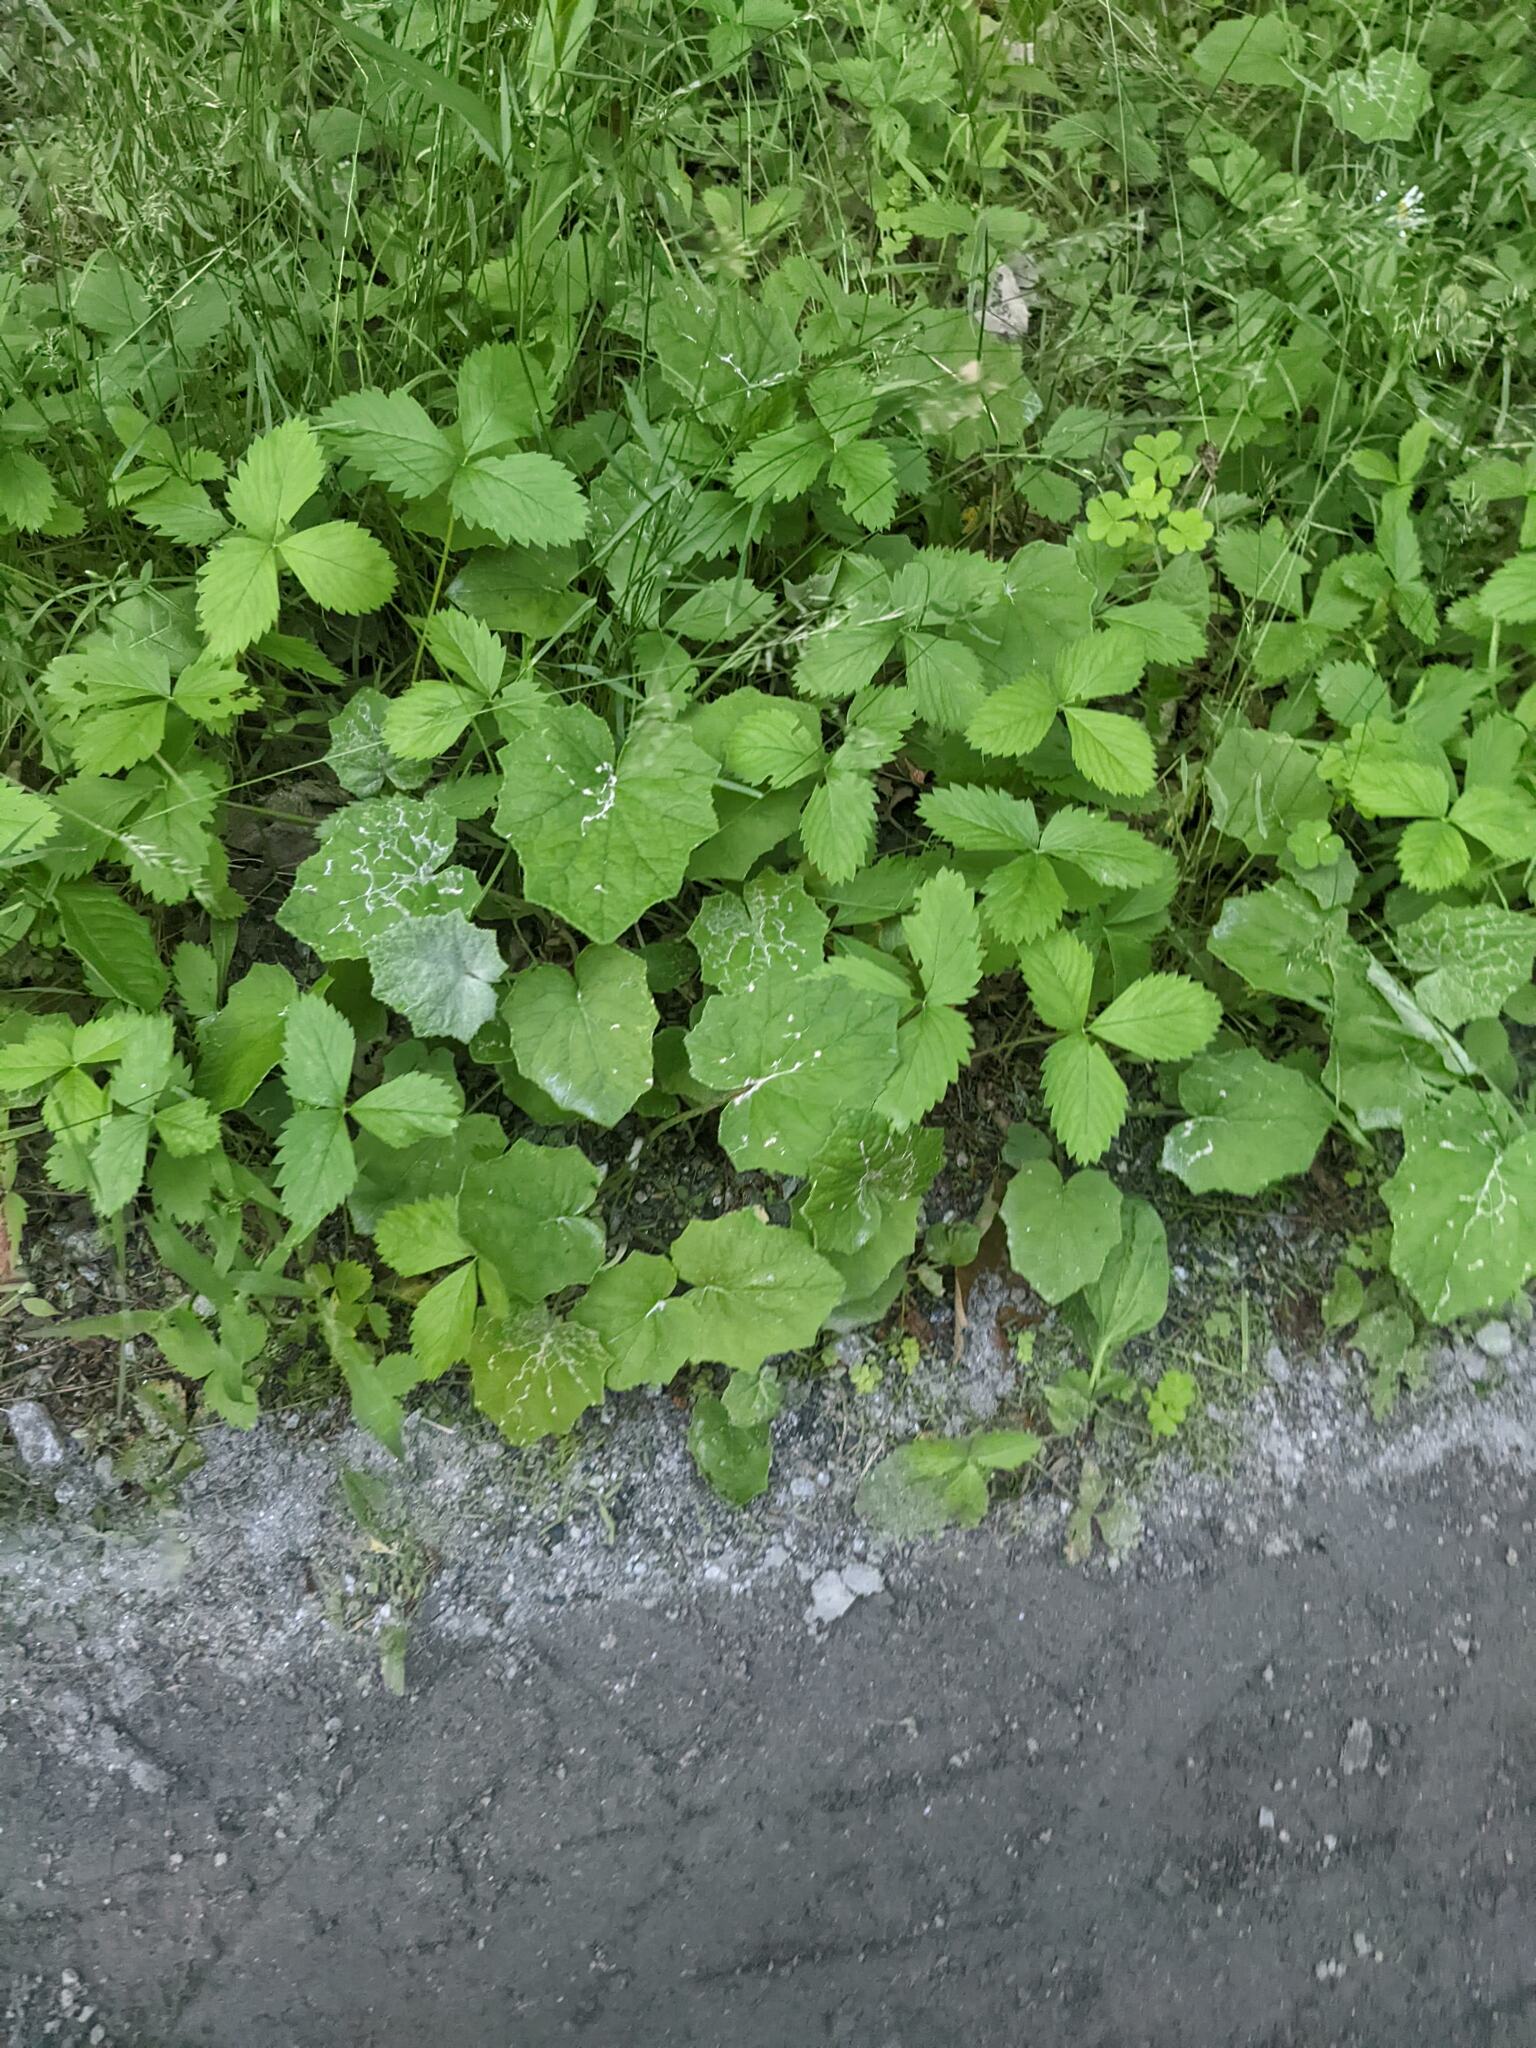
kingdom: Plantae
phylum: Tracheophyta
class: Magnoliopsida
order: Asterales
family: Asteraceae
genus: Tussilago
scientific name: Tussilago farfara
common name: Coltsfoot
